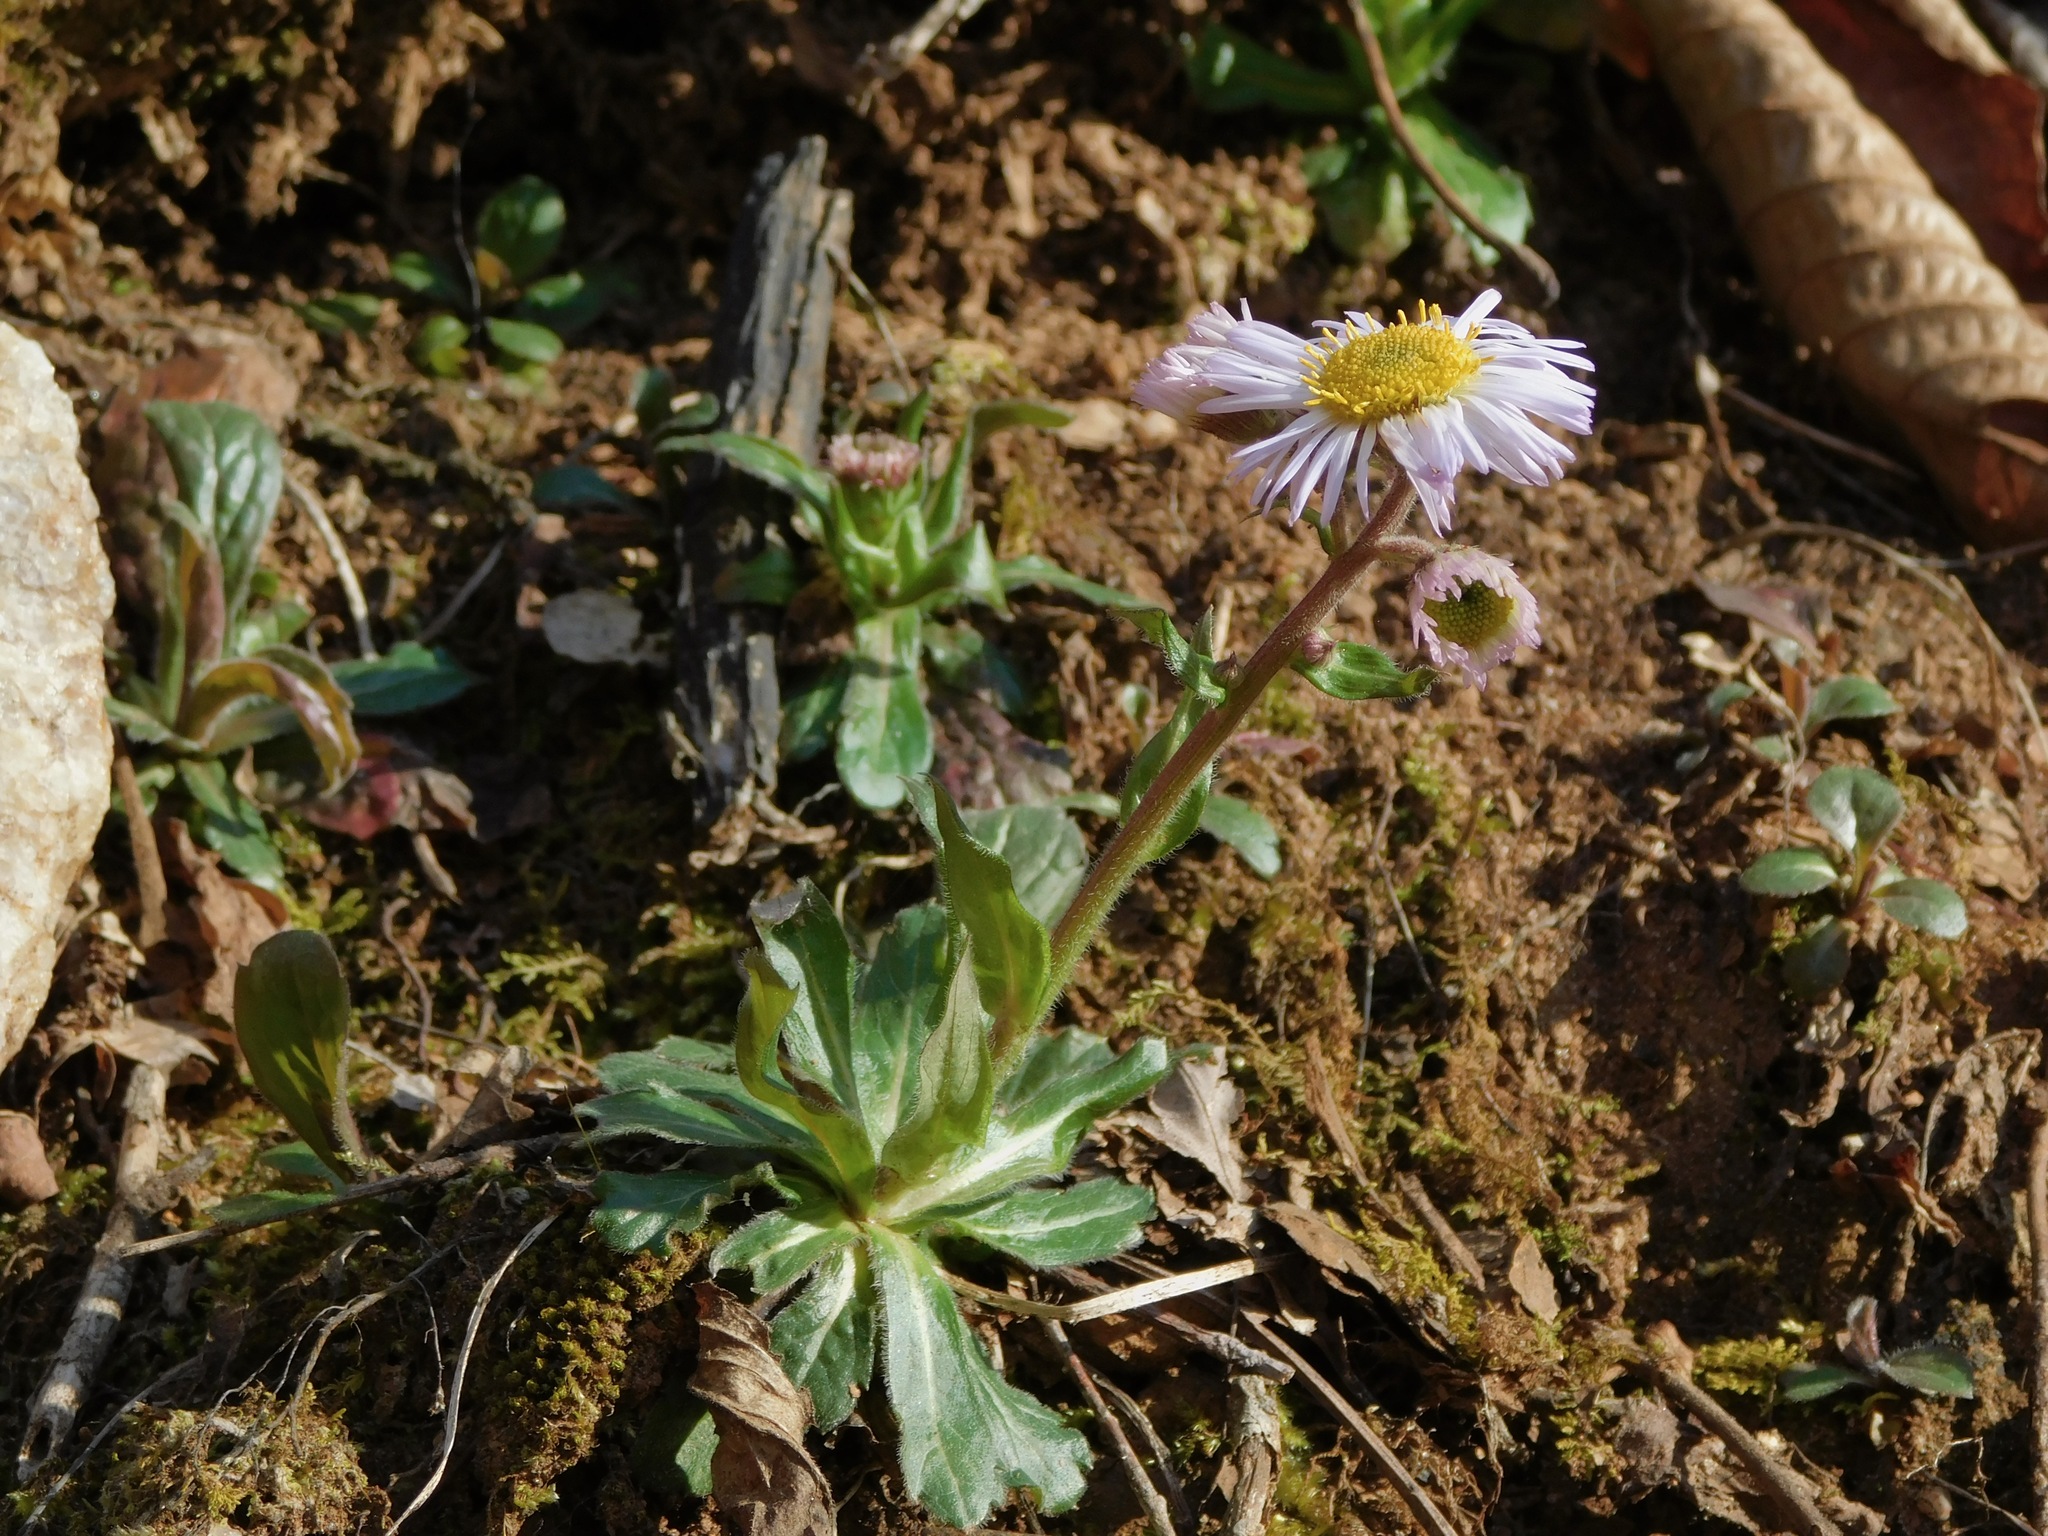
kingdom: Plantae
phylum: Tracheophyta
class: Magnoliopsida
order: Asterales
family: Asteraceae
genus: Erigeron
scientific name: Erigeron pulchellus
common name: Hairy fleabane
